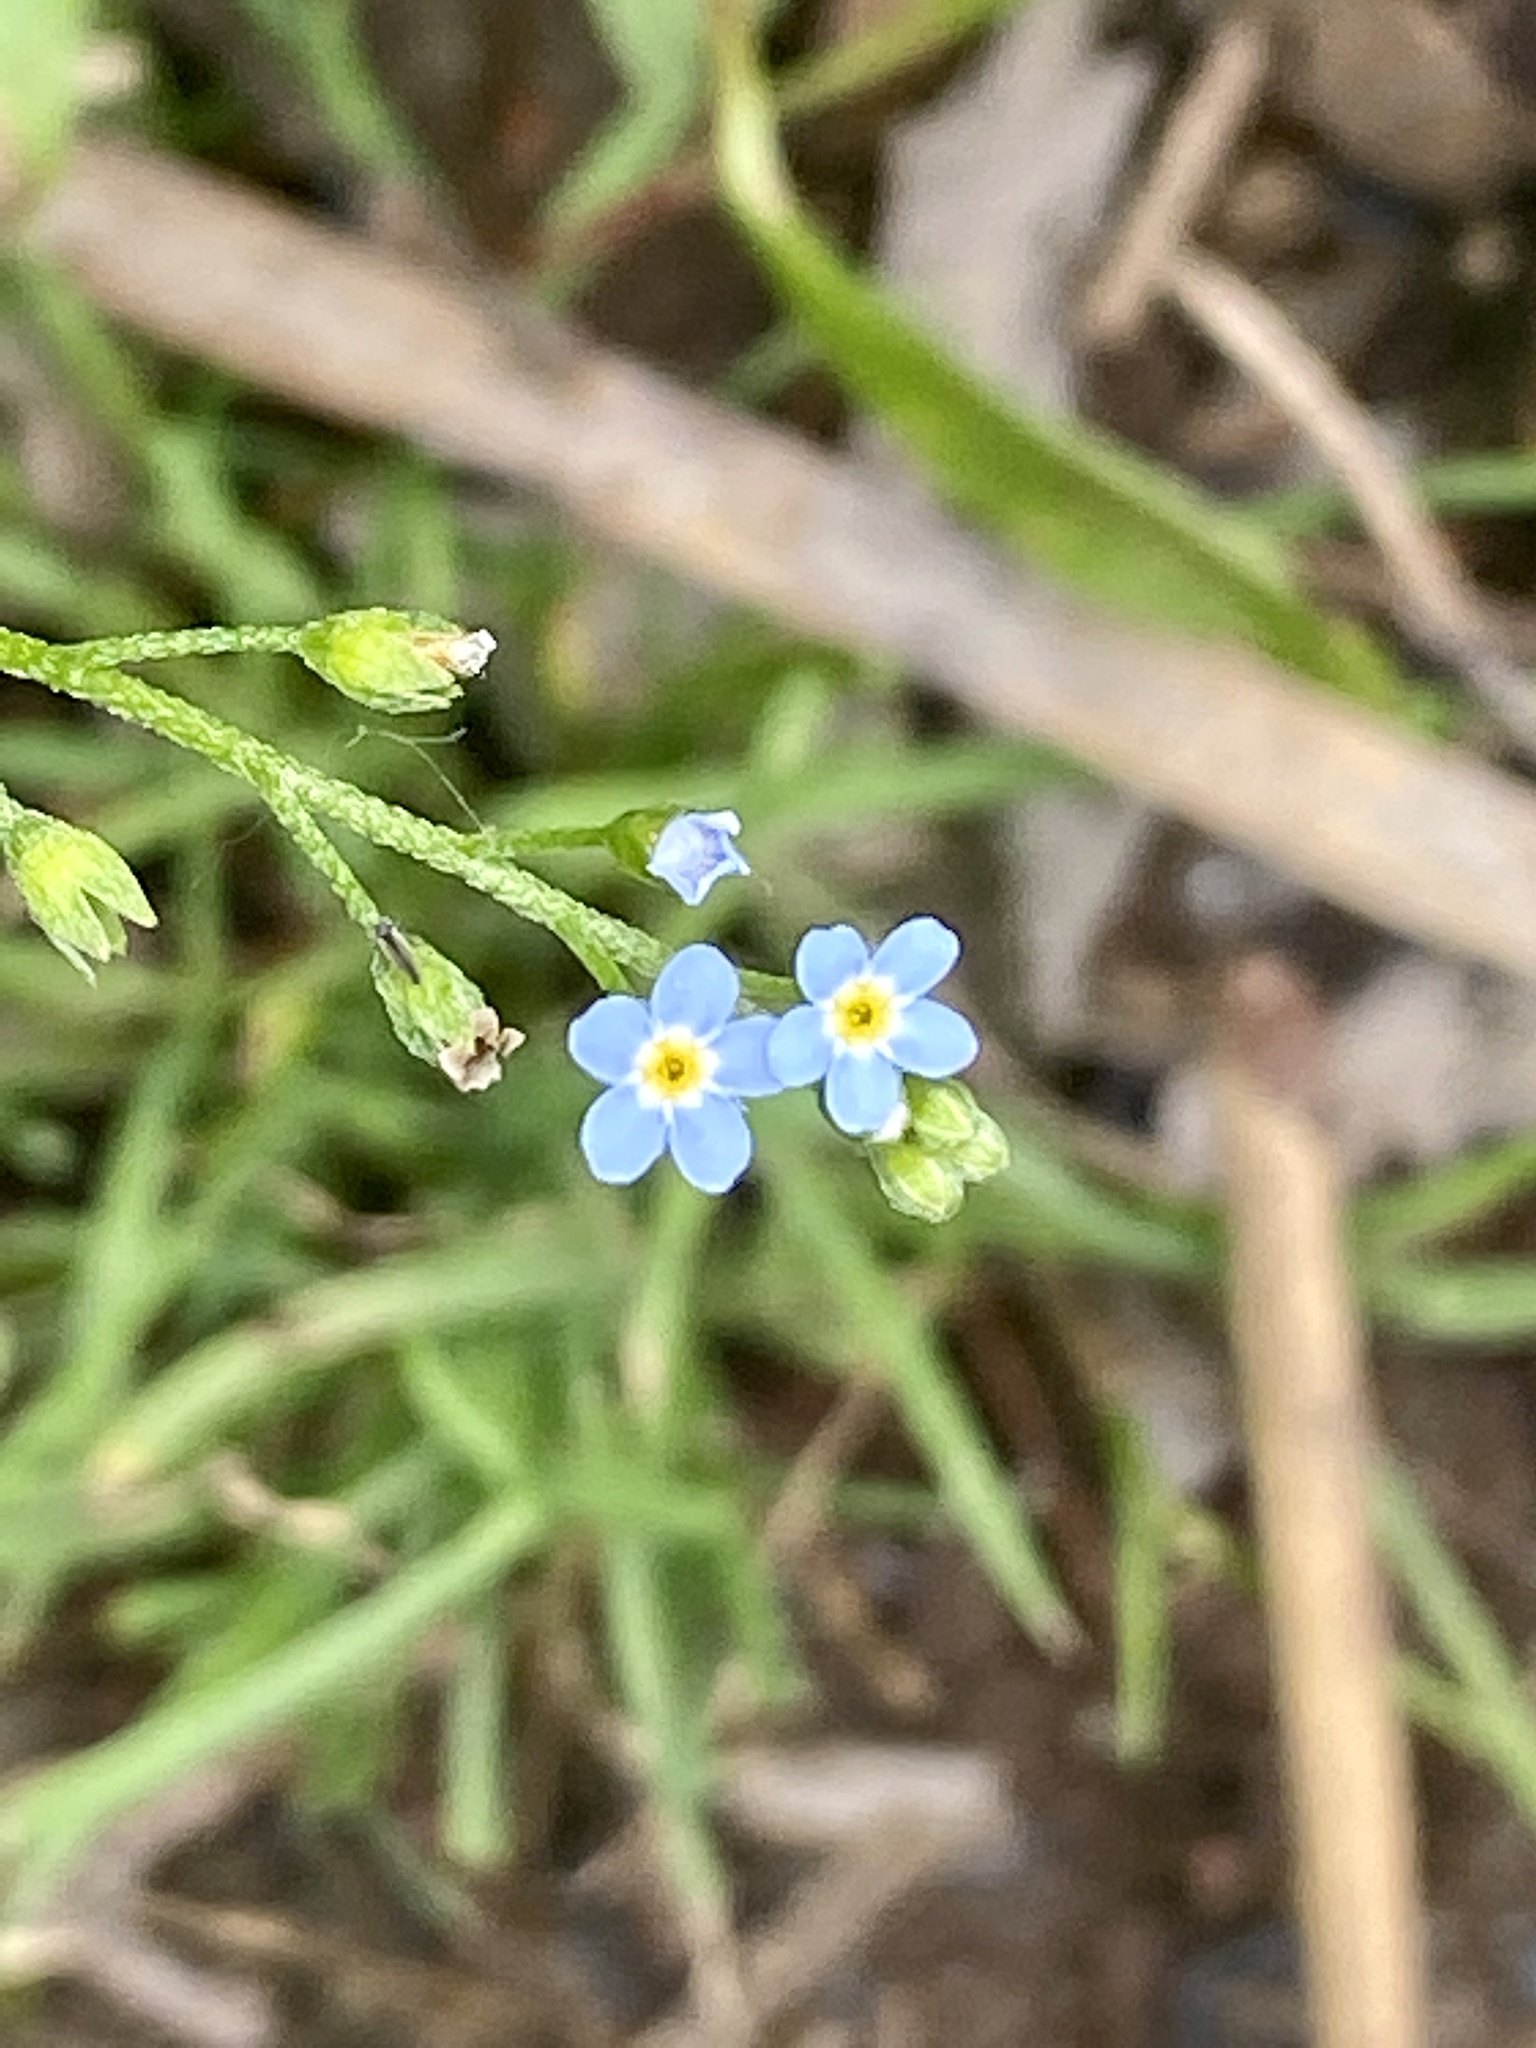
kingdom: Plantae
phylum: Tracheophyta
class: Magnoliopsida
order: Boraginales
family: Boraginaceae
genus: Myosotis
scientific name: Myosotis laxa
